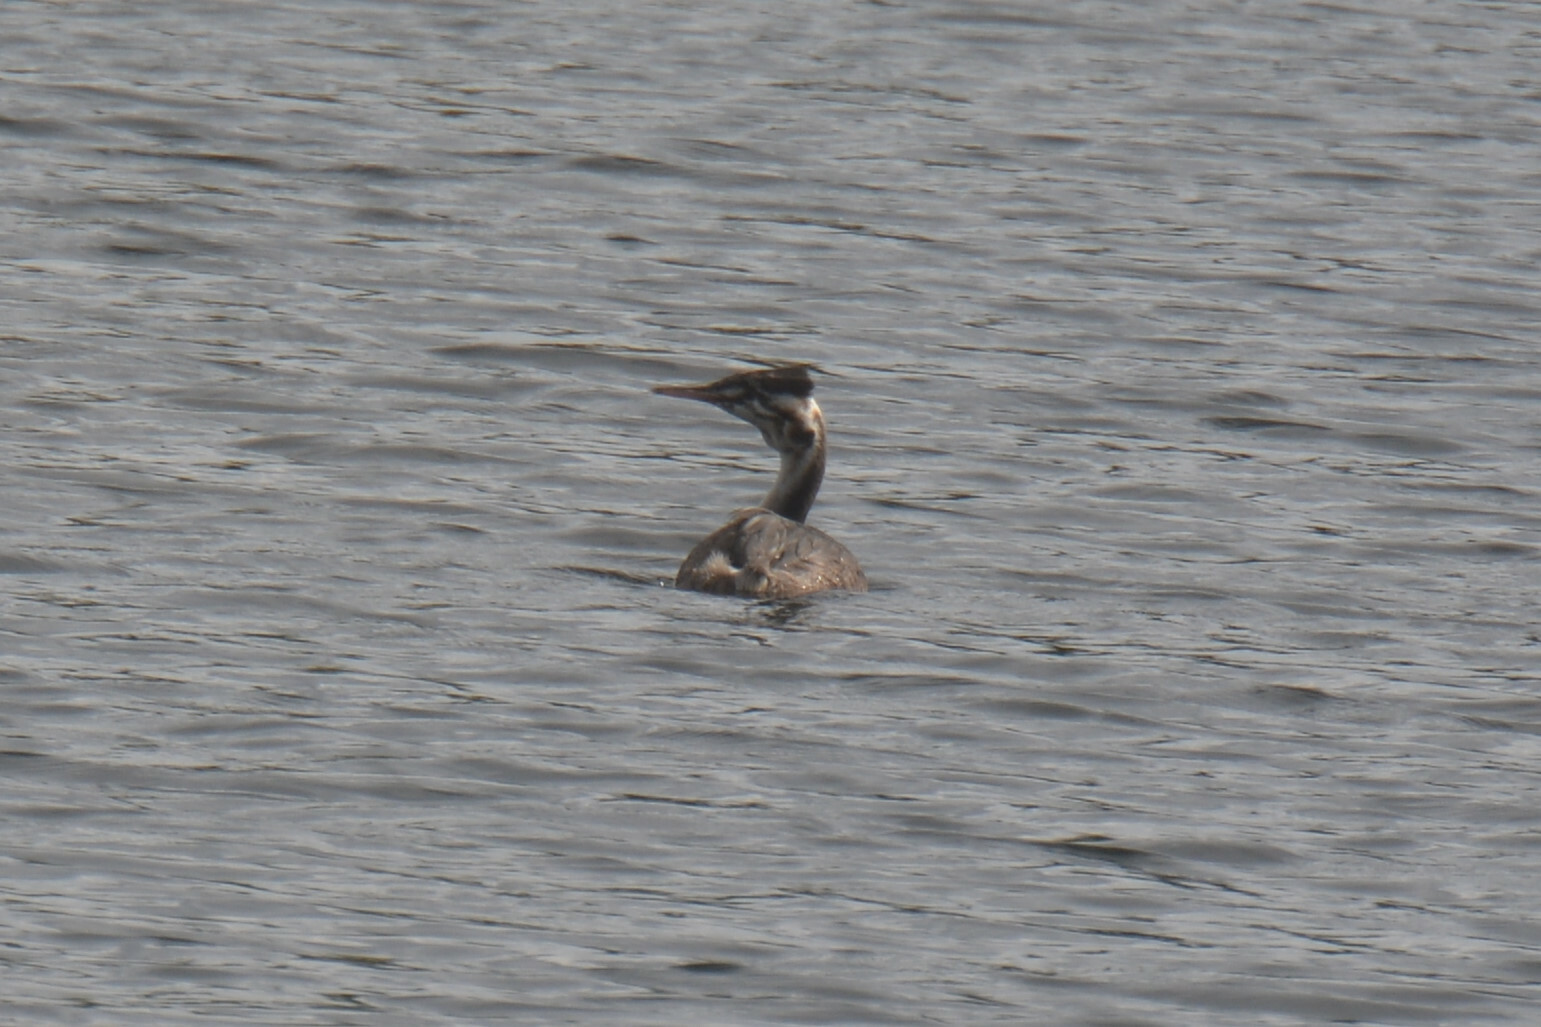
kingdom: Animalia
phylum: Chordata
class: Aves
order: Podicipediformes
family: Podicipedidae
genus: Podiceps
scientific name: Podiceps cristatus
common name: Great crested grebe
